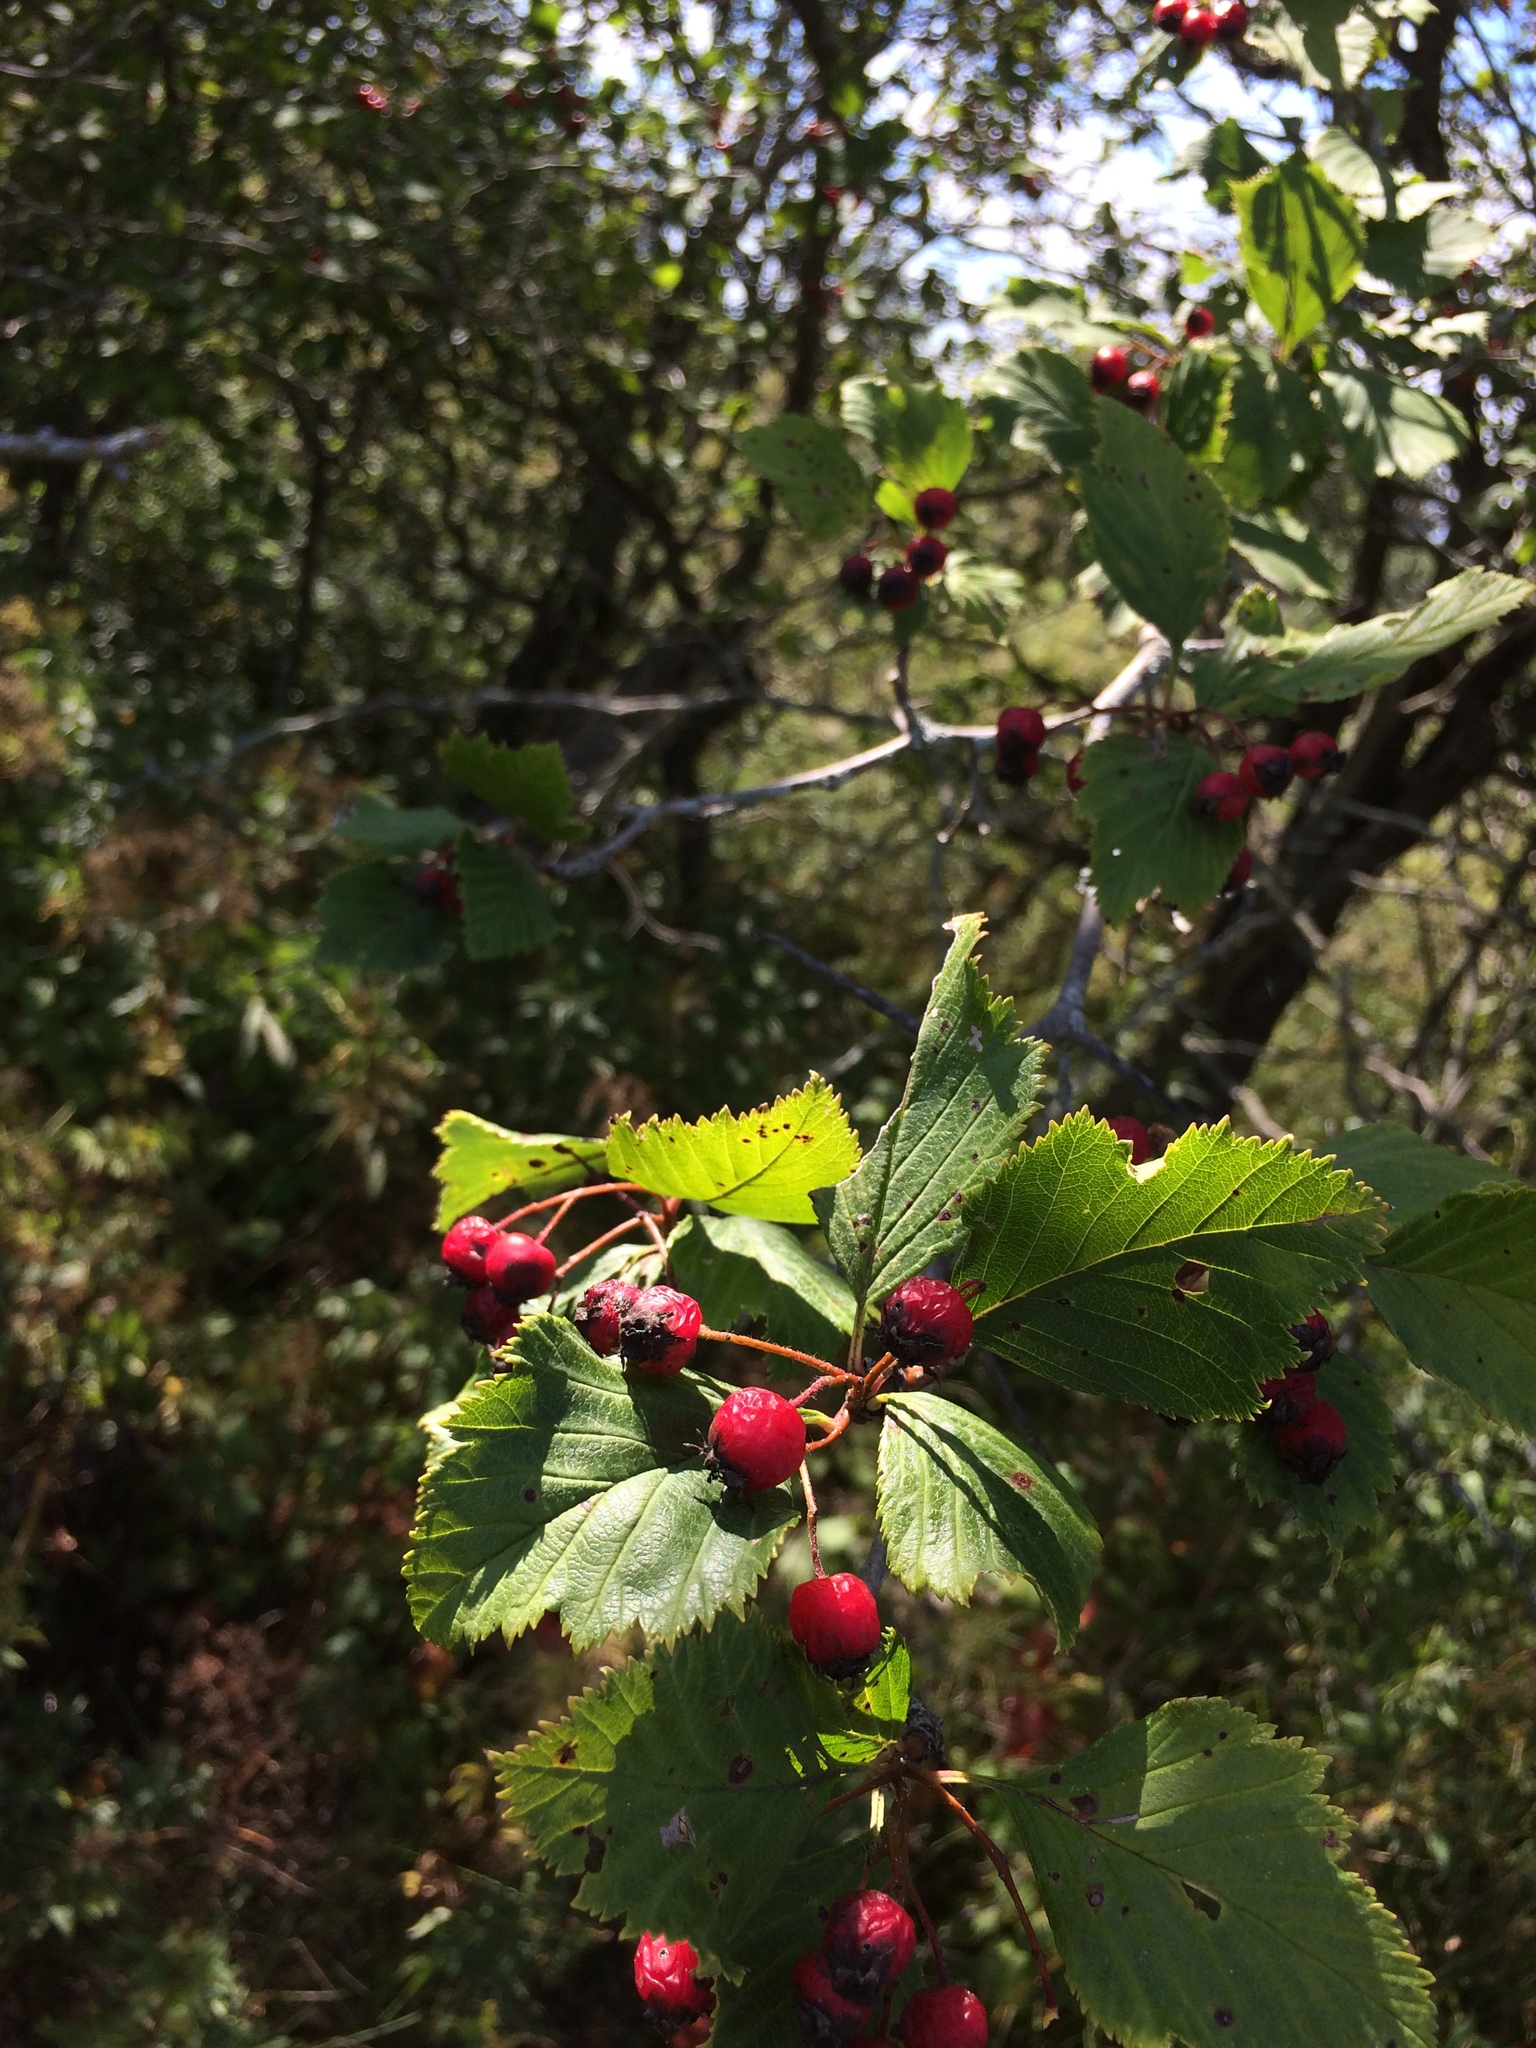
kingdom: Plantae
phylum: Tracheophyta
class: Magnoliopsida
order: Rosales
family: Rosaceae
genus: Crataegus
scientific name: Crataegus macracantha
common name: Large-thorn hawthorn
